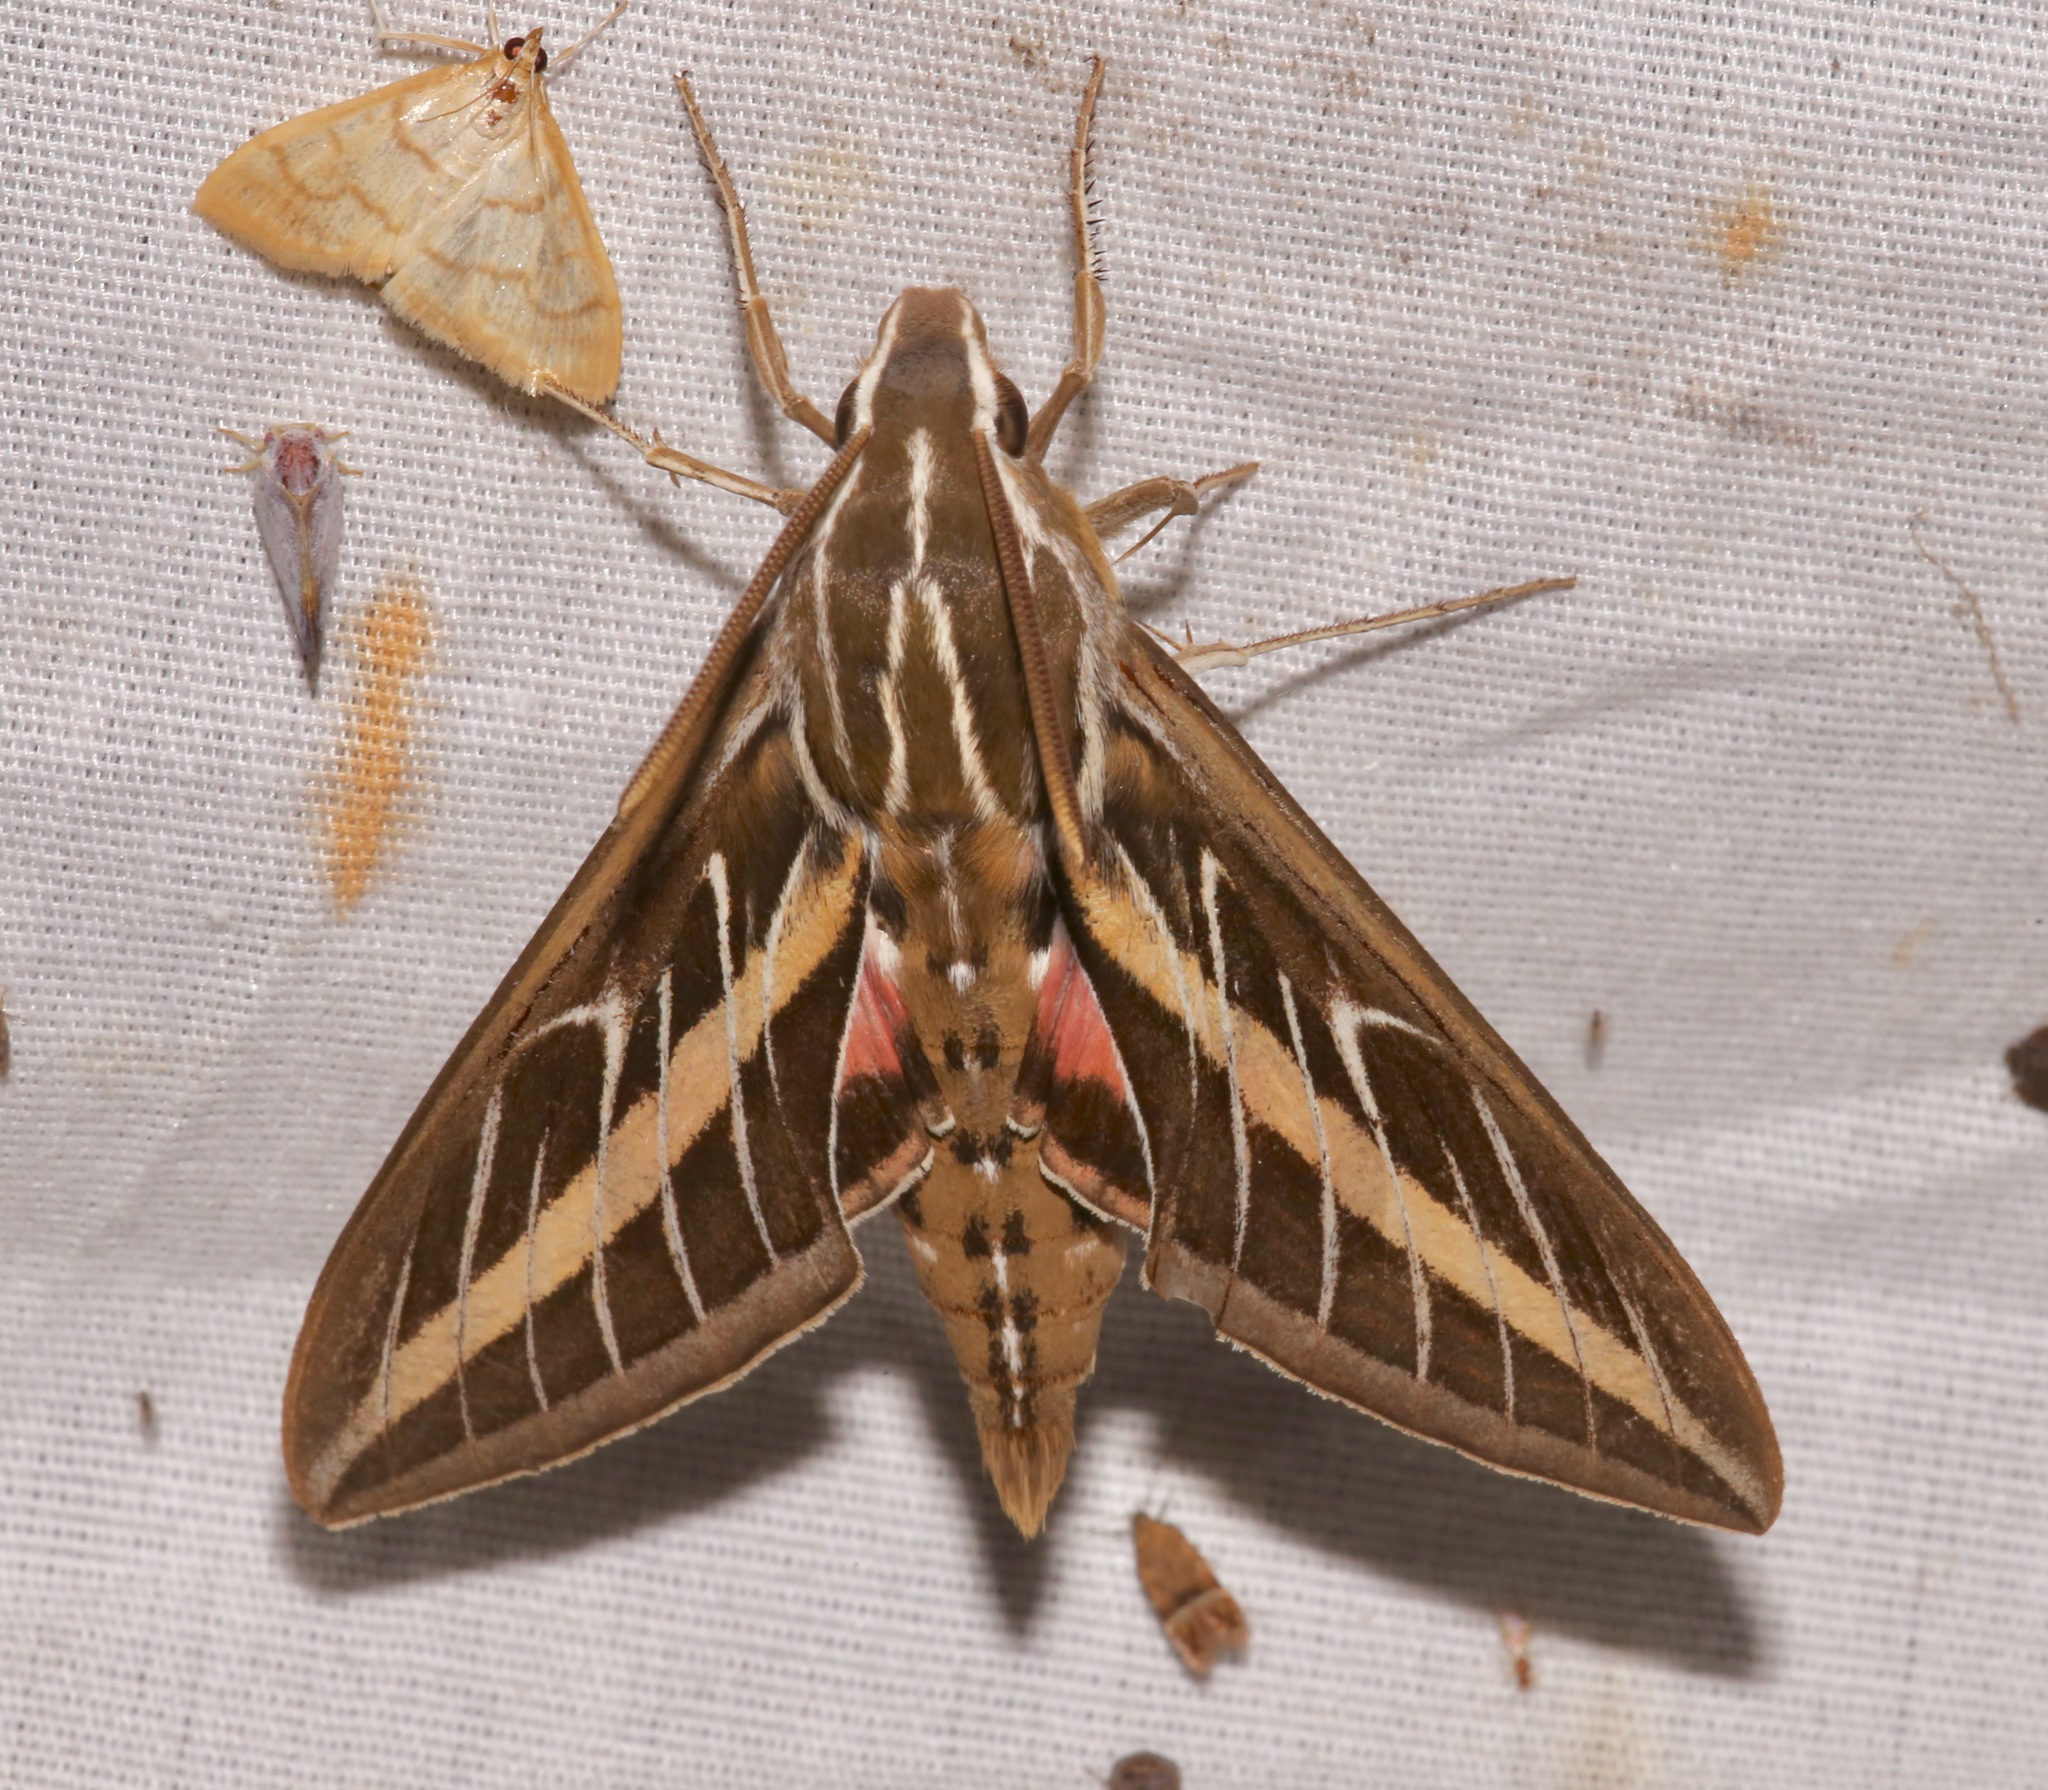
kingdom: Animalia
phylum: Arthropoda
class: Insecta
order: Lepidoptera
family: Sphingidae
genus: Hyles
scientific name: Hyles lineata
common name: White-lined sphinx
